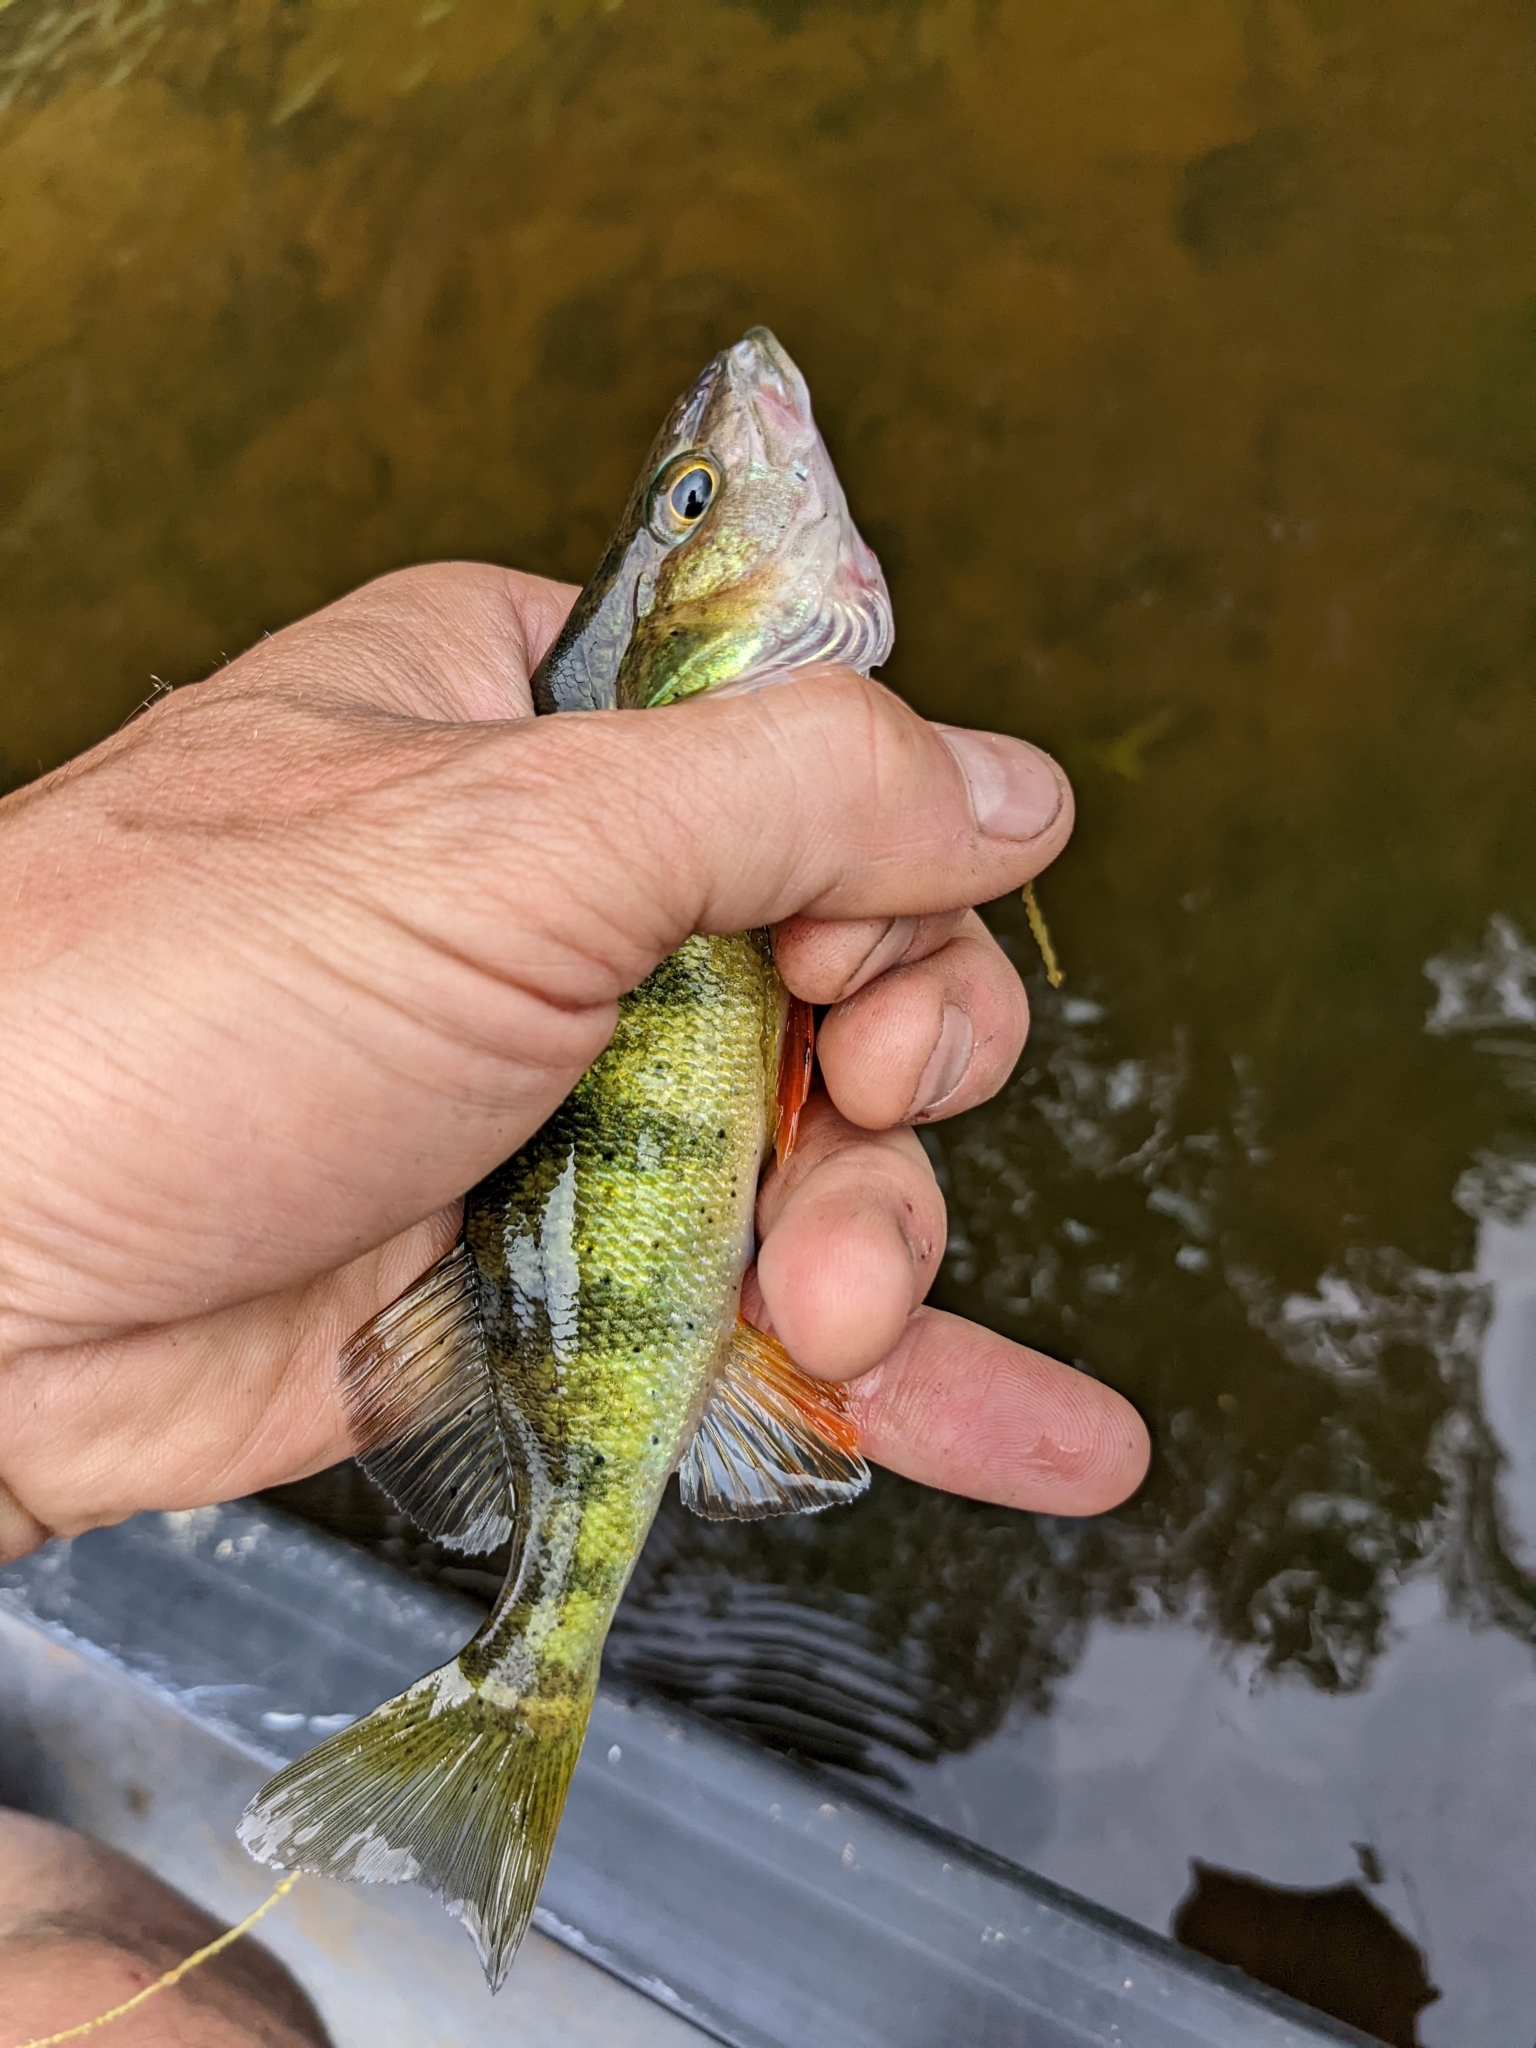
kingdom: Animalia
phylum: Chordata
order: Perciformes
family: Percidae
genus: Perca
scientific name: Perca flavescens
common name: Yellow perch
